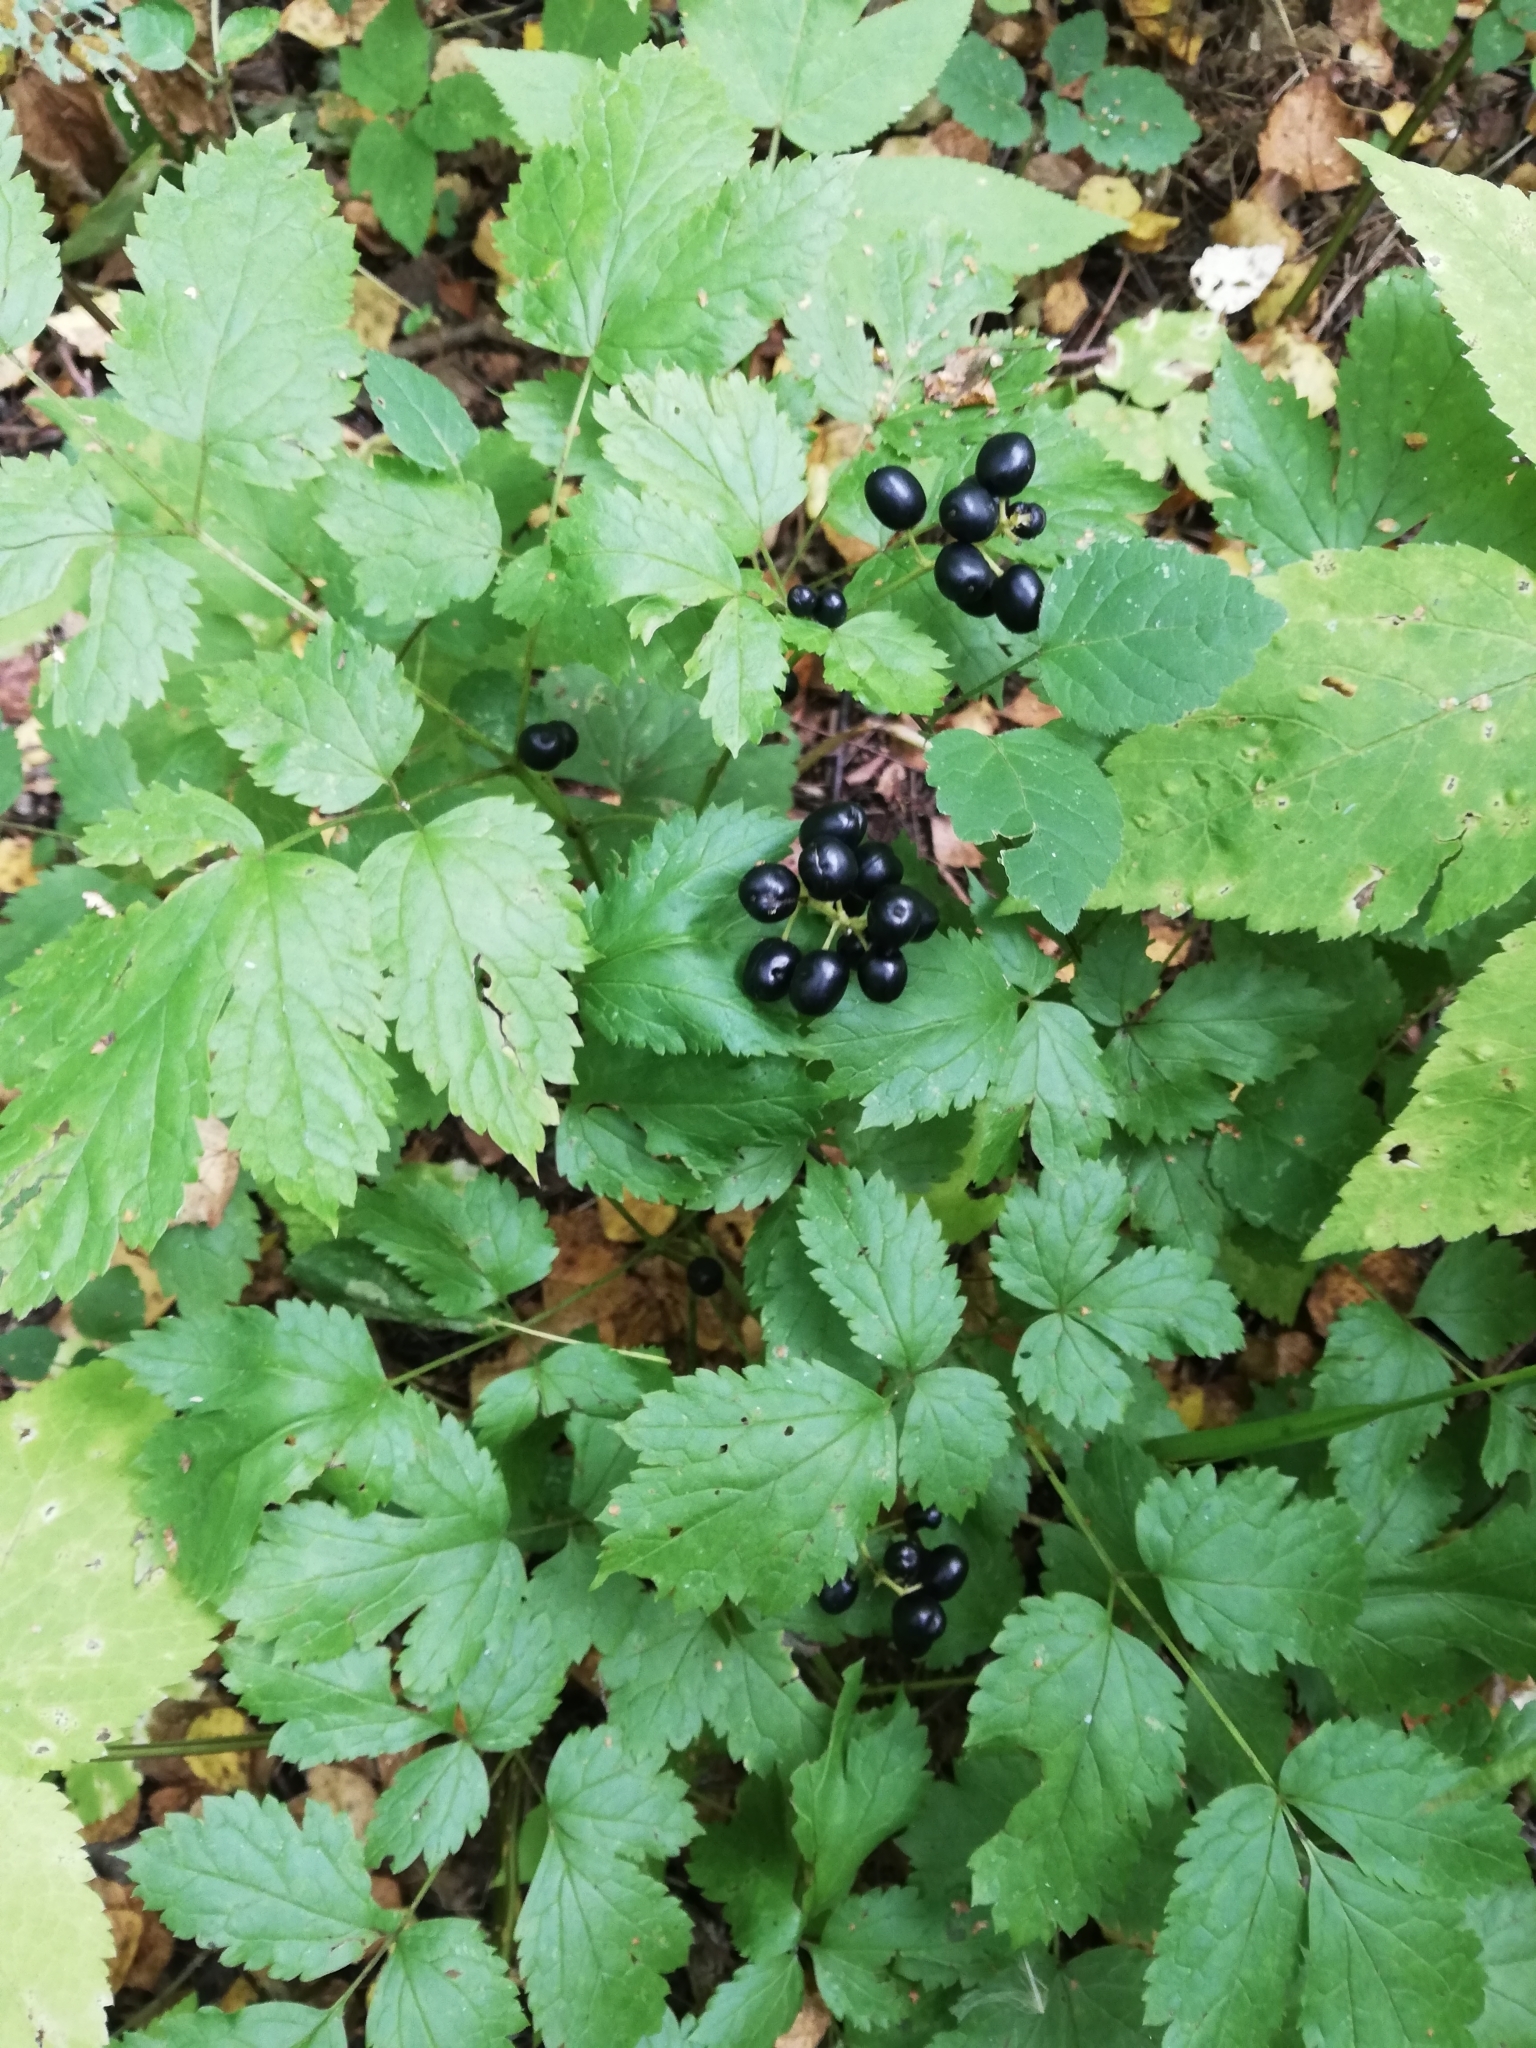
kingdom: Plantae
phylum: Tracheophyta
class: Magnoliopsida
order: Ranunculales
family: Ranunculaceae
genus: Actaea
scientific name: Actaea spicata
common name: Baneberry
